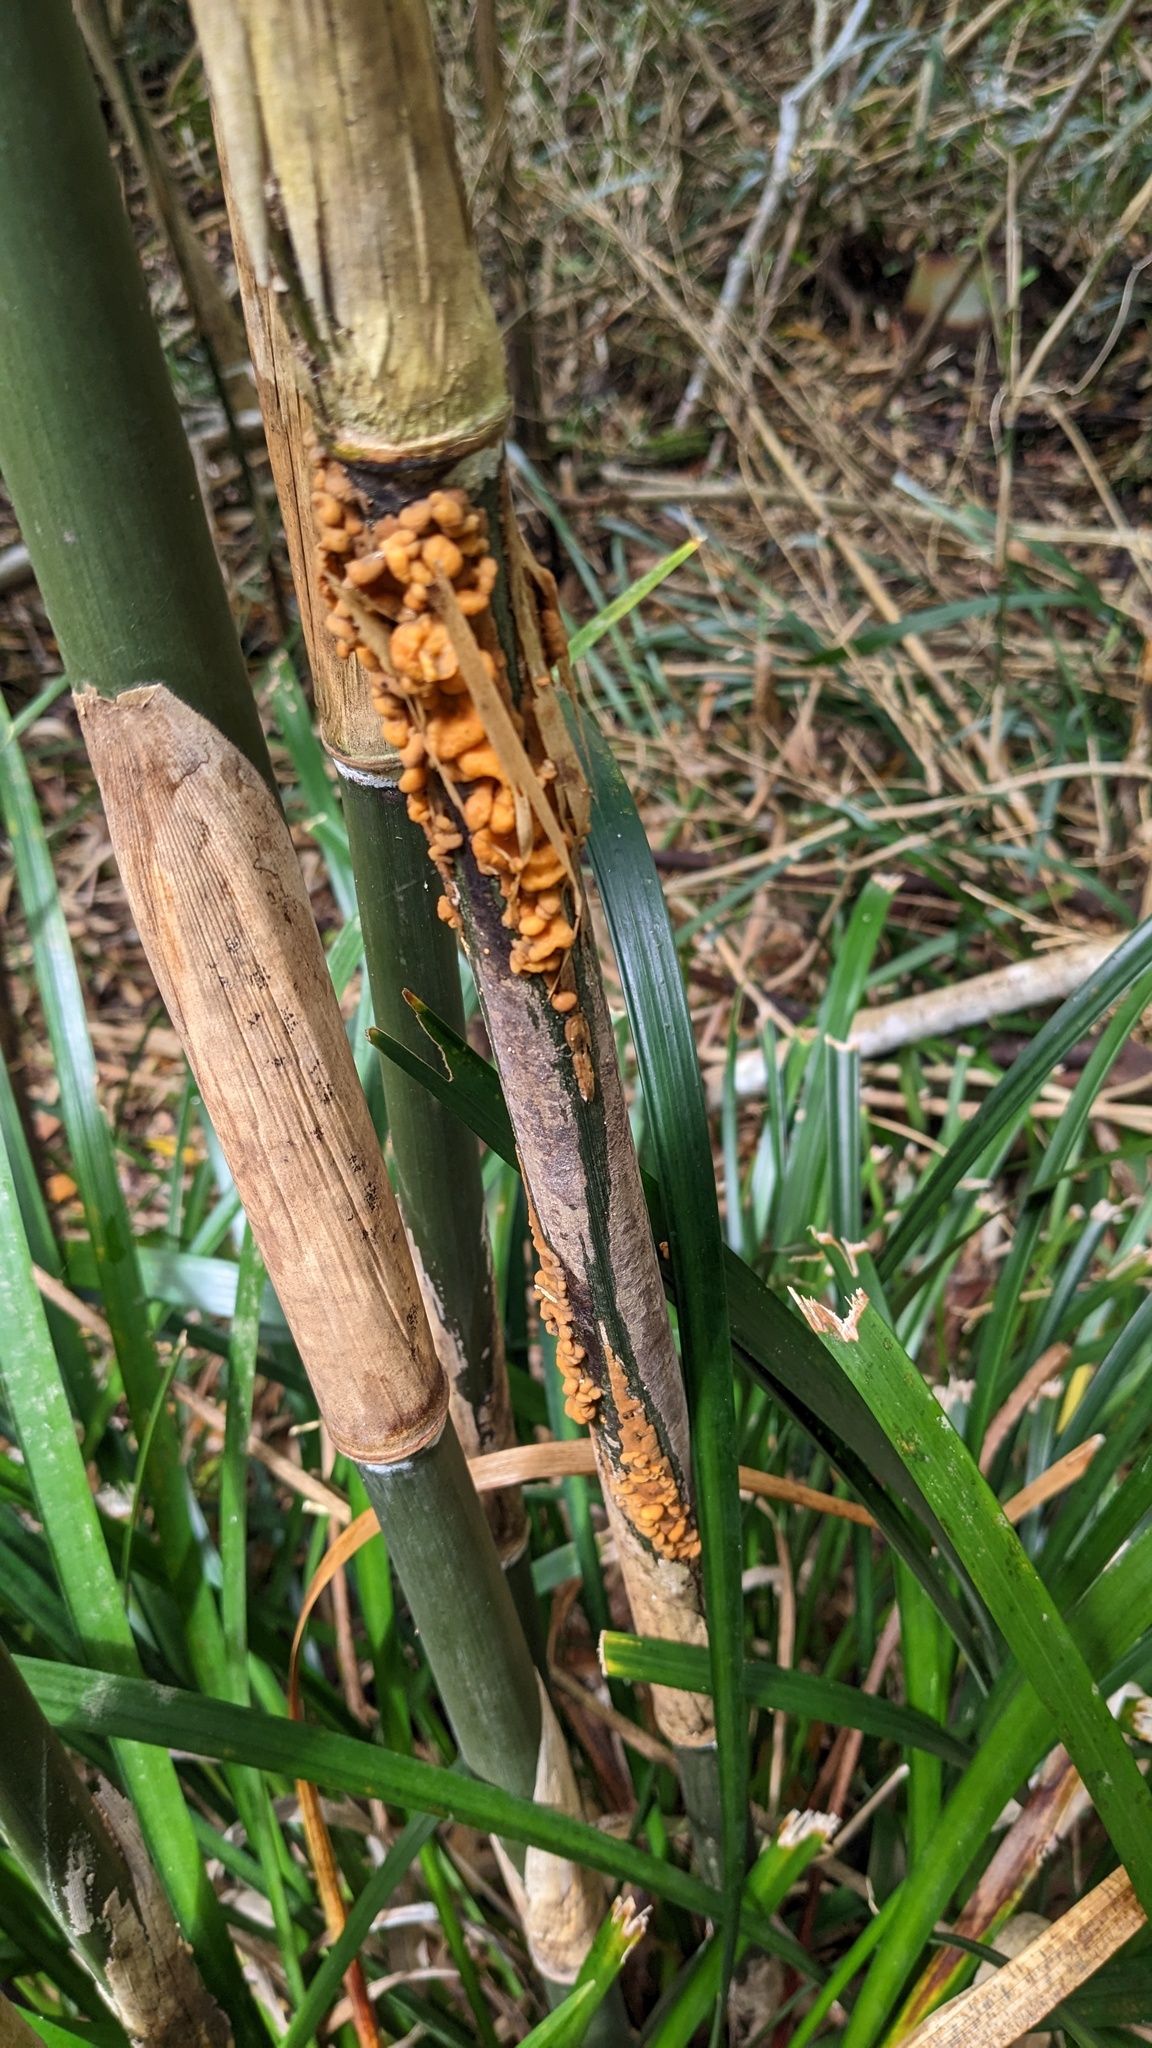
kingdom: Fungi
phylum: Basidiomycota
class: Pucciniomycetes
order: Pucciniales
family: Pucciniaceae
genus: Stereostratum
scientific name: Stereostratum corticioides
